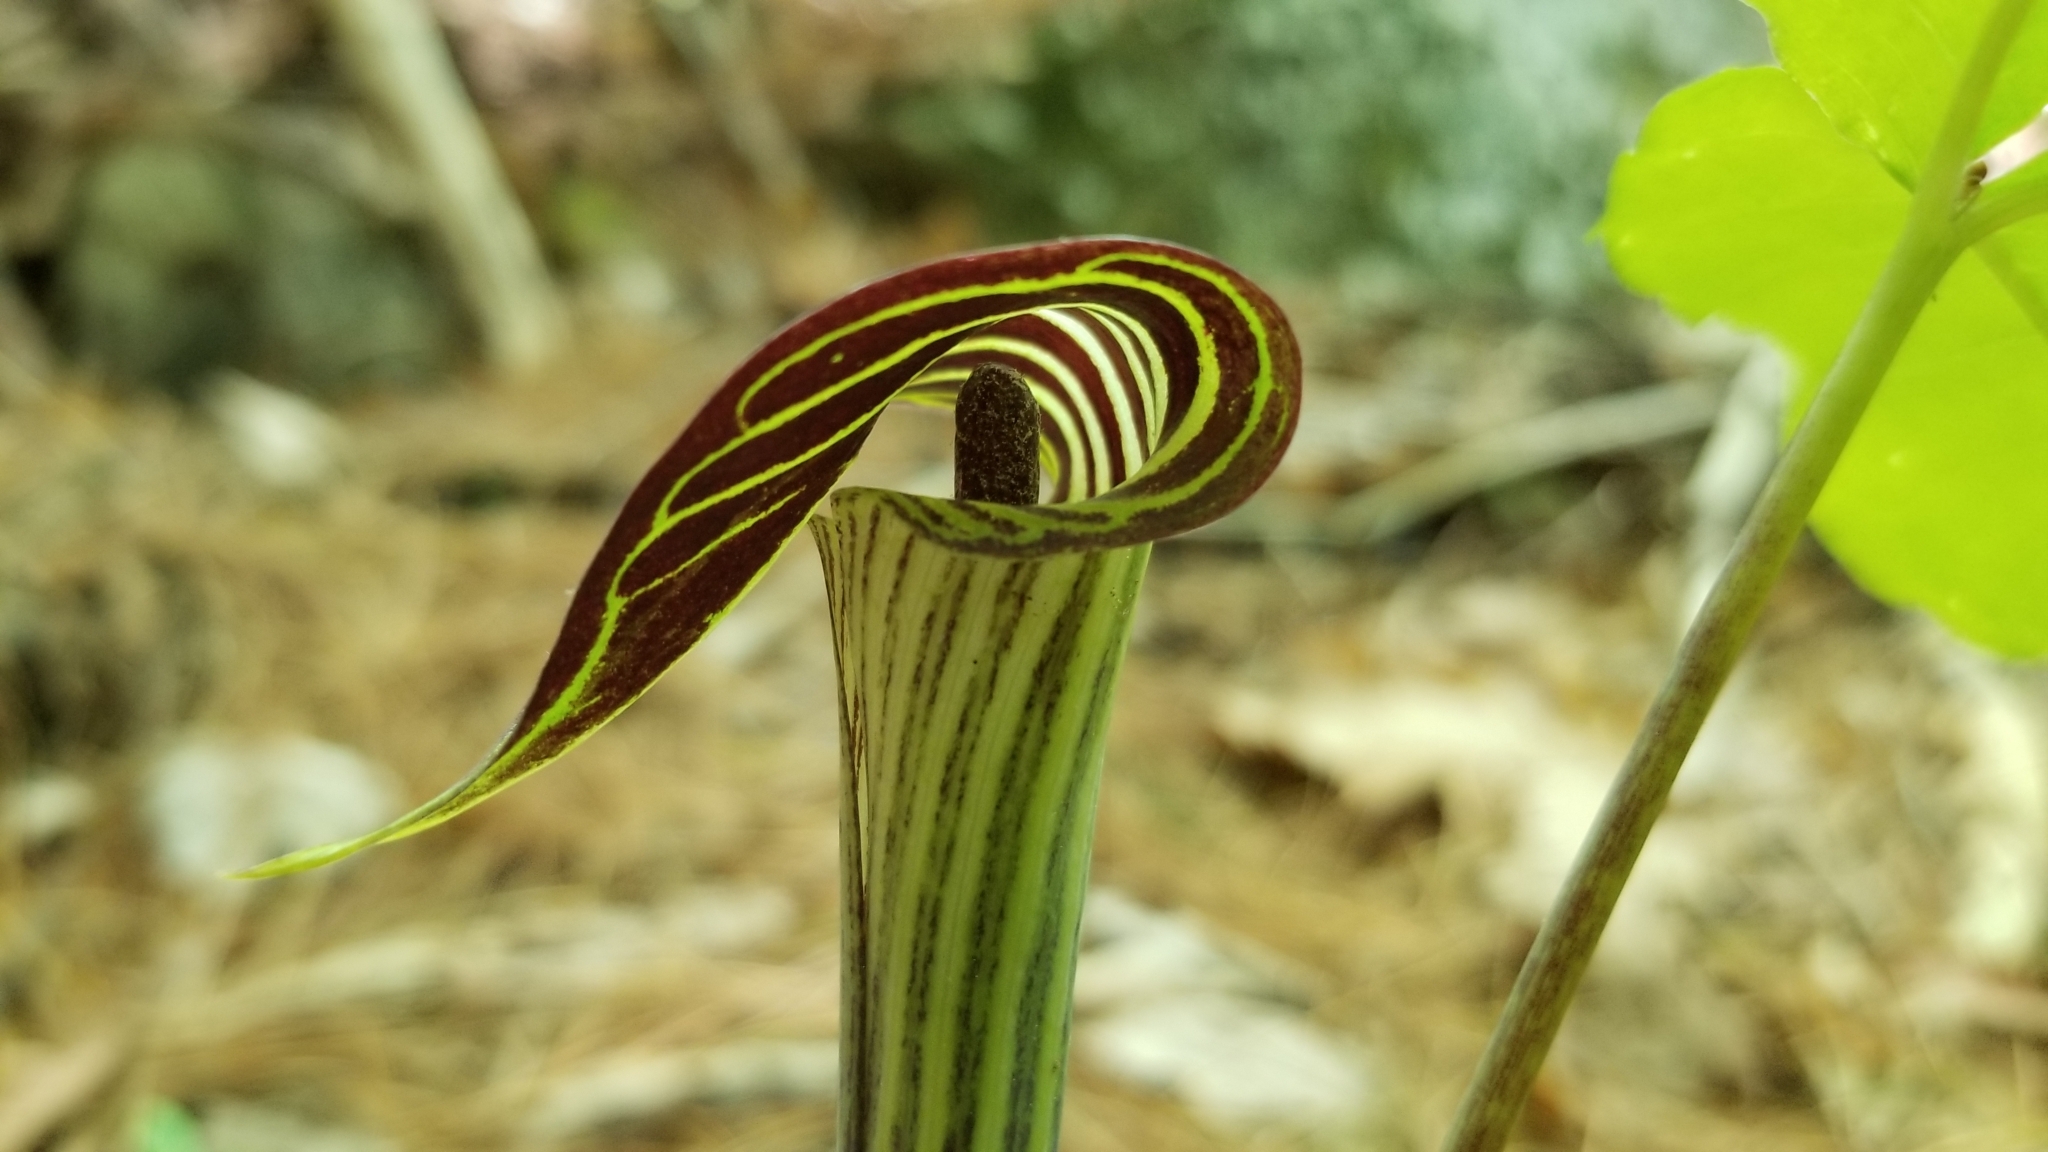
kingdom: Plantae
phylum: Tracheophyta
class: Liliopsida
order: Alismatales
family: Araceae
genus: Arisaema
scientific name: Arisaema triphyllum
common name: Jack-in-the-pulpit
